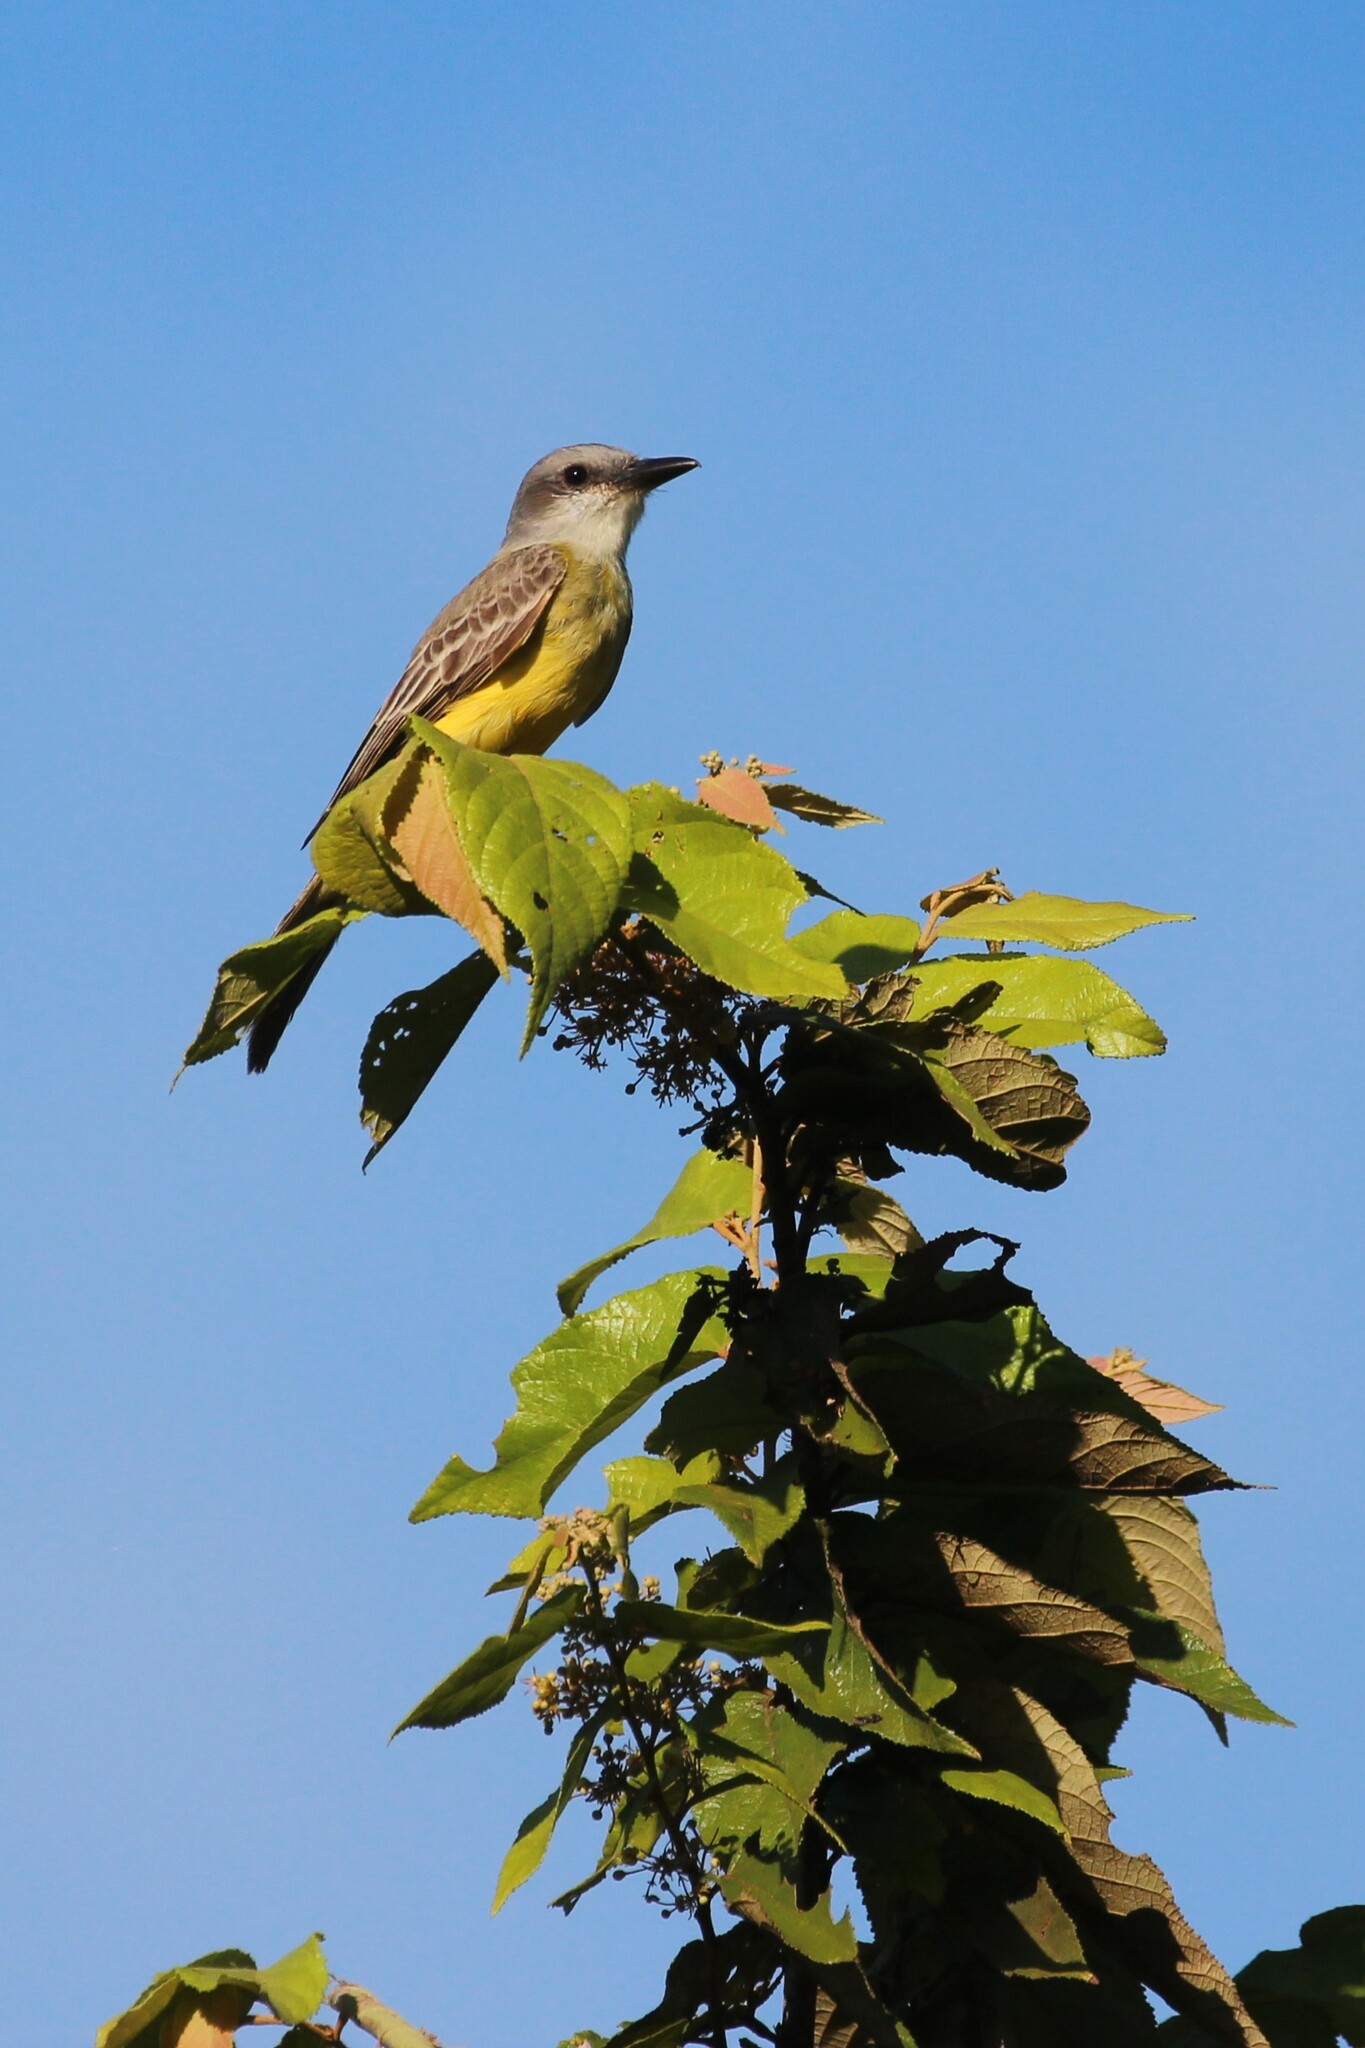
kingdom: Animalia
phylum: Chordata
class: Aves
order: Passeriformes
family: Tyrannidae
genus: Tyrannus
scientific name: Tyrannus melancholicus
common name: Tropical kingbird
